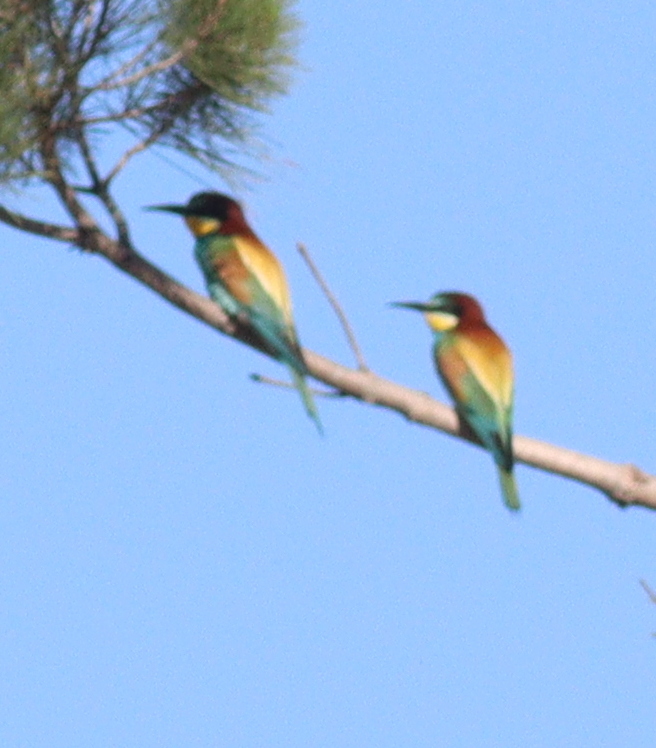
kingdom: Animalia
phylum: Chordata
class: Aves
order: Coraciiformes
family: Meropidae
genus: Merops
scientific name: Merops apiaster
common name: European bee-eater
